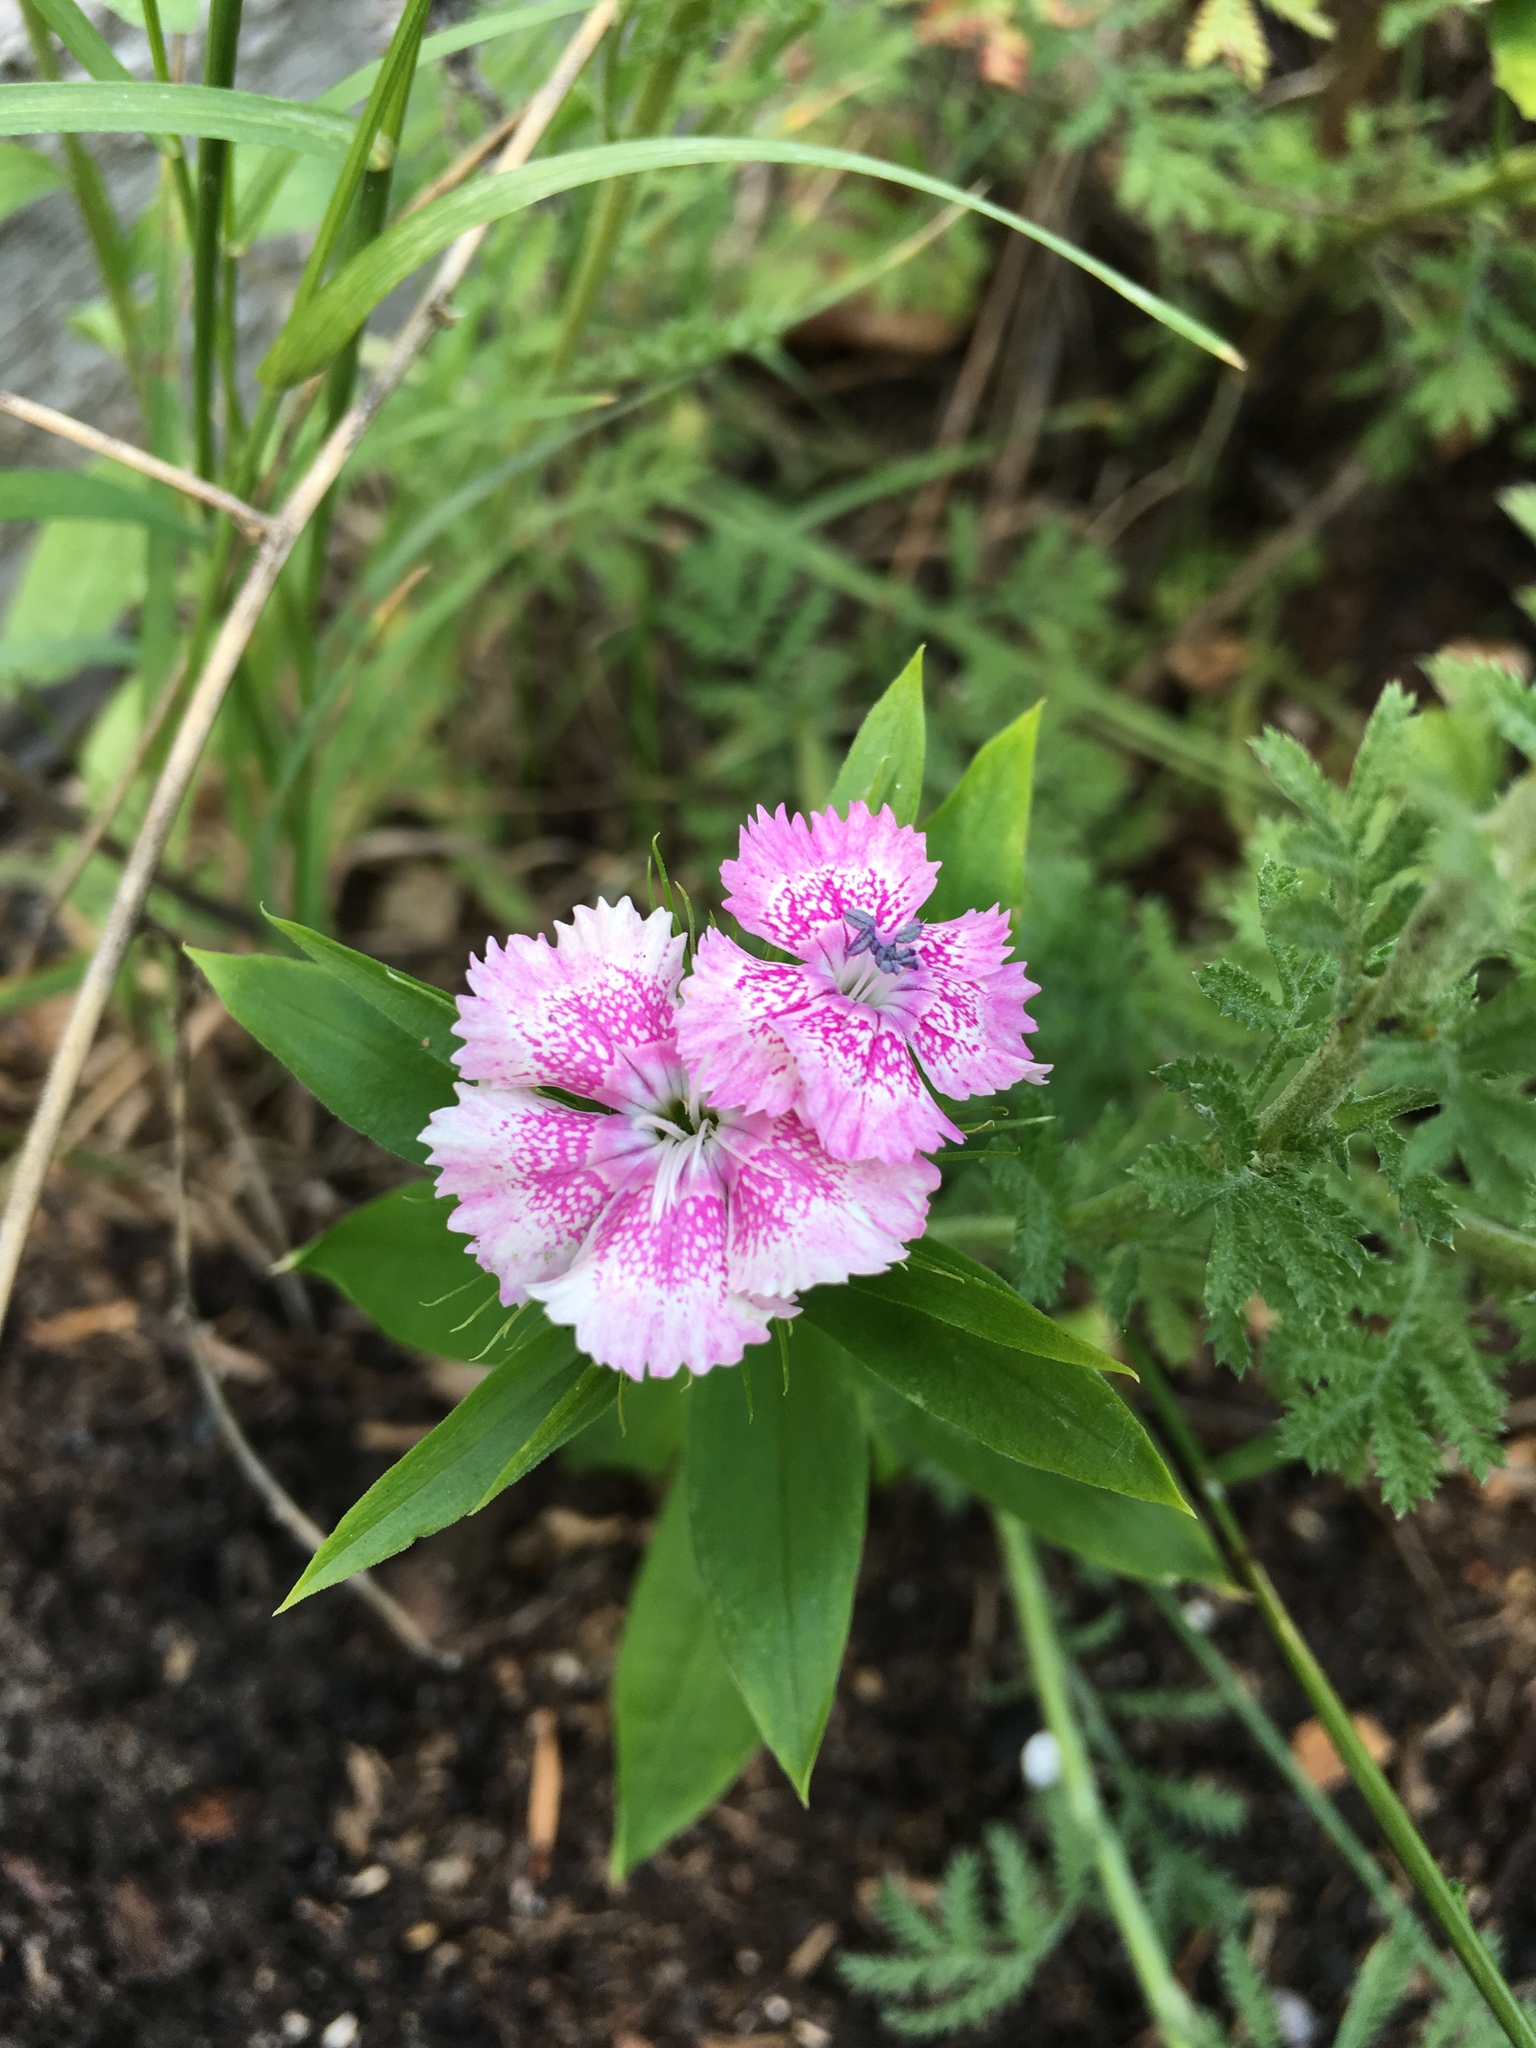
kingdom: Plantae
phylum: Tracheophyta
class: Magnoliopsida
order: Caryophyllales
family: Caryophyllaceae
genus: Dianthus
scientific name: Dianthus barbatus
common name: Sweet-william
